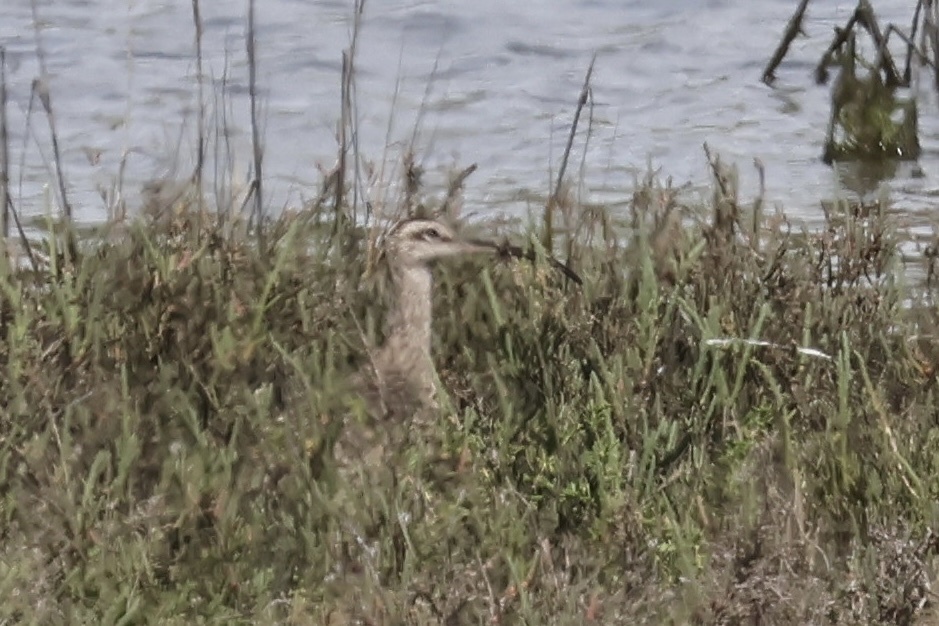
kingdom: Animalia
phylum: Chordata
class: Aves
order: Charadriiformes
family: Scolopacidae
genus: Numenius
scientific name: Numenius phaeopus
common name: Whimbrel
